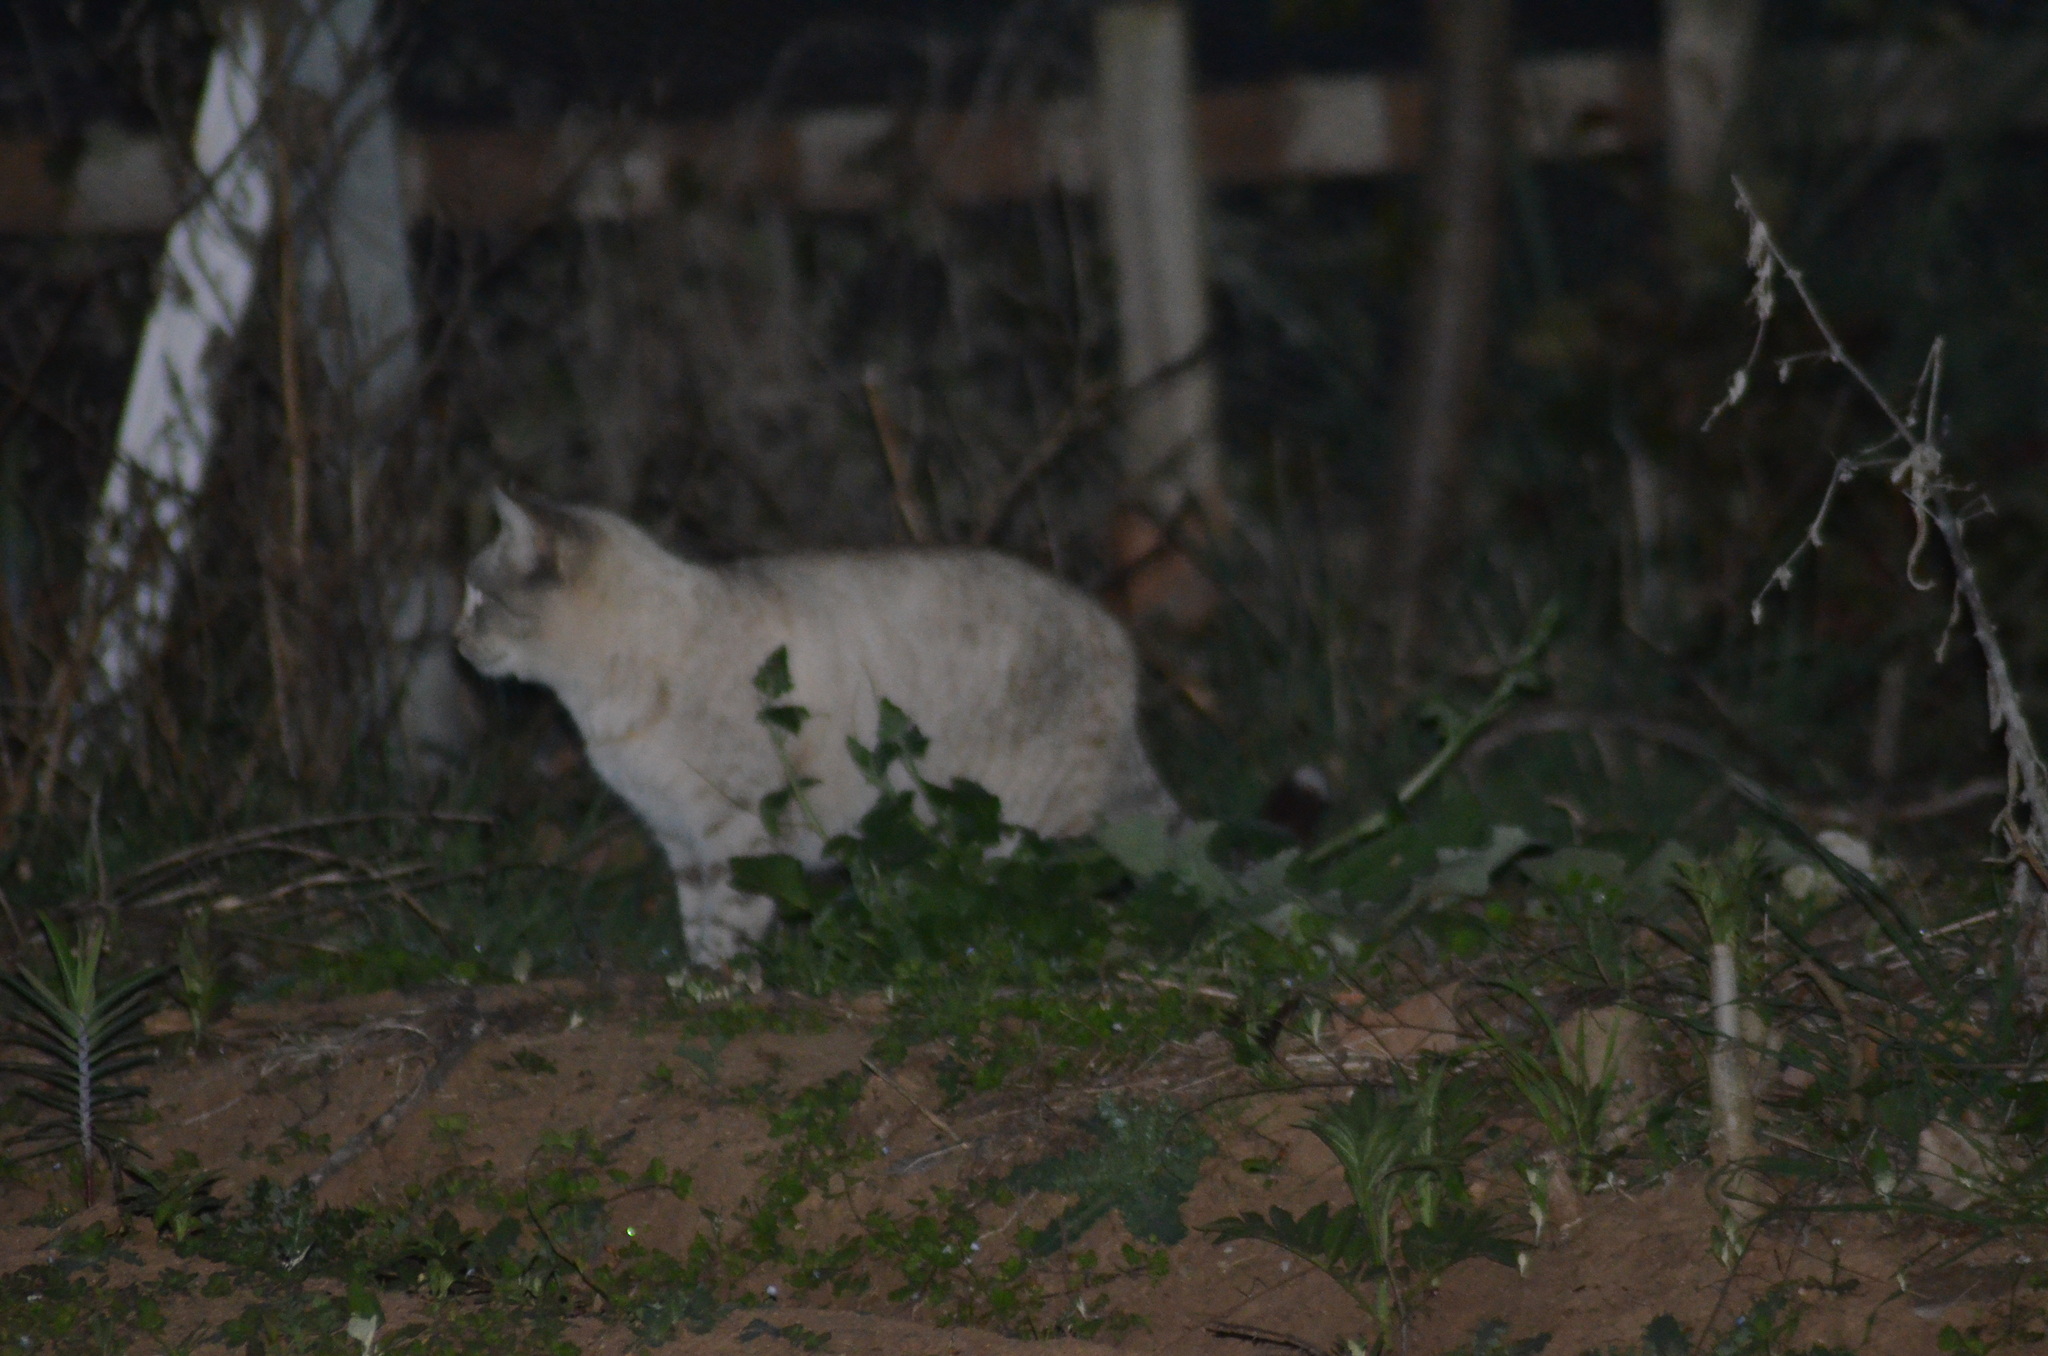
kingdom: Animalia
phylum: Chordata
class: Mammalia
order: Carnivora
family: Felidae
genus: Felis
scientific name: Felis catus
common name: Domestic cat
